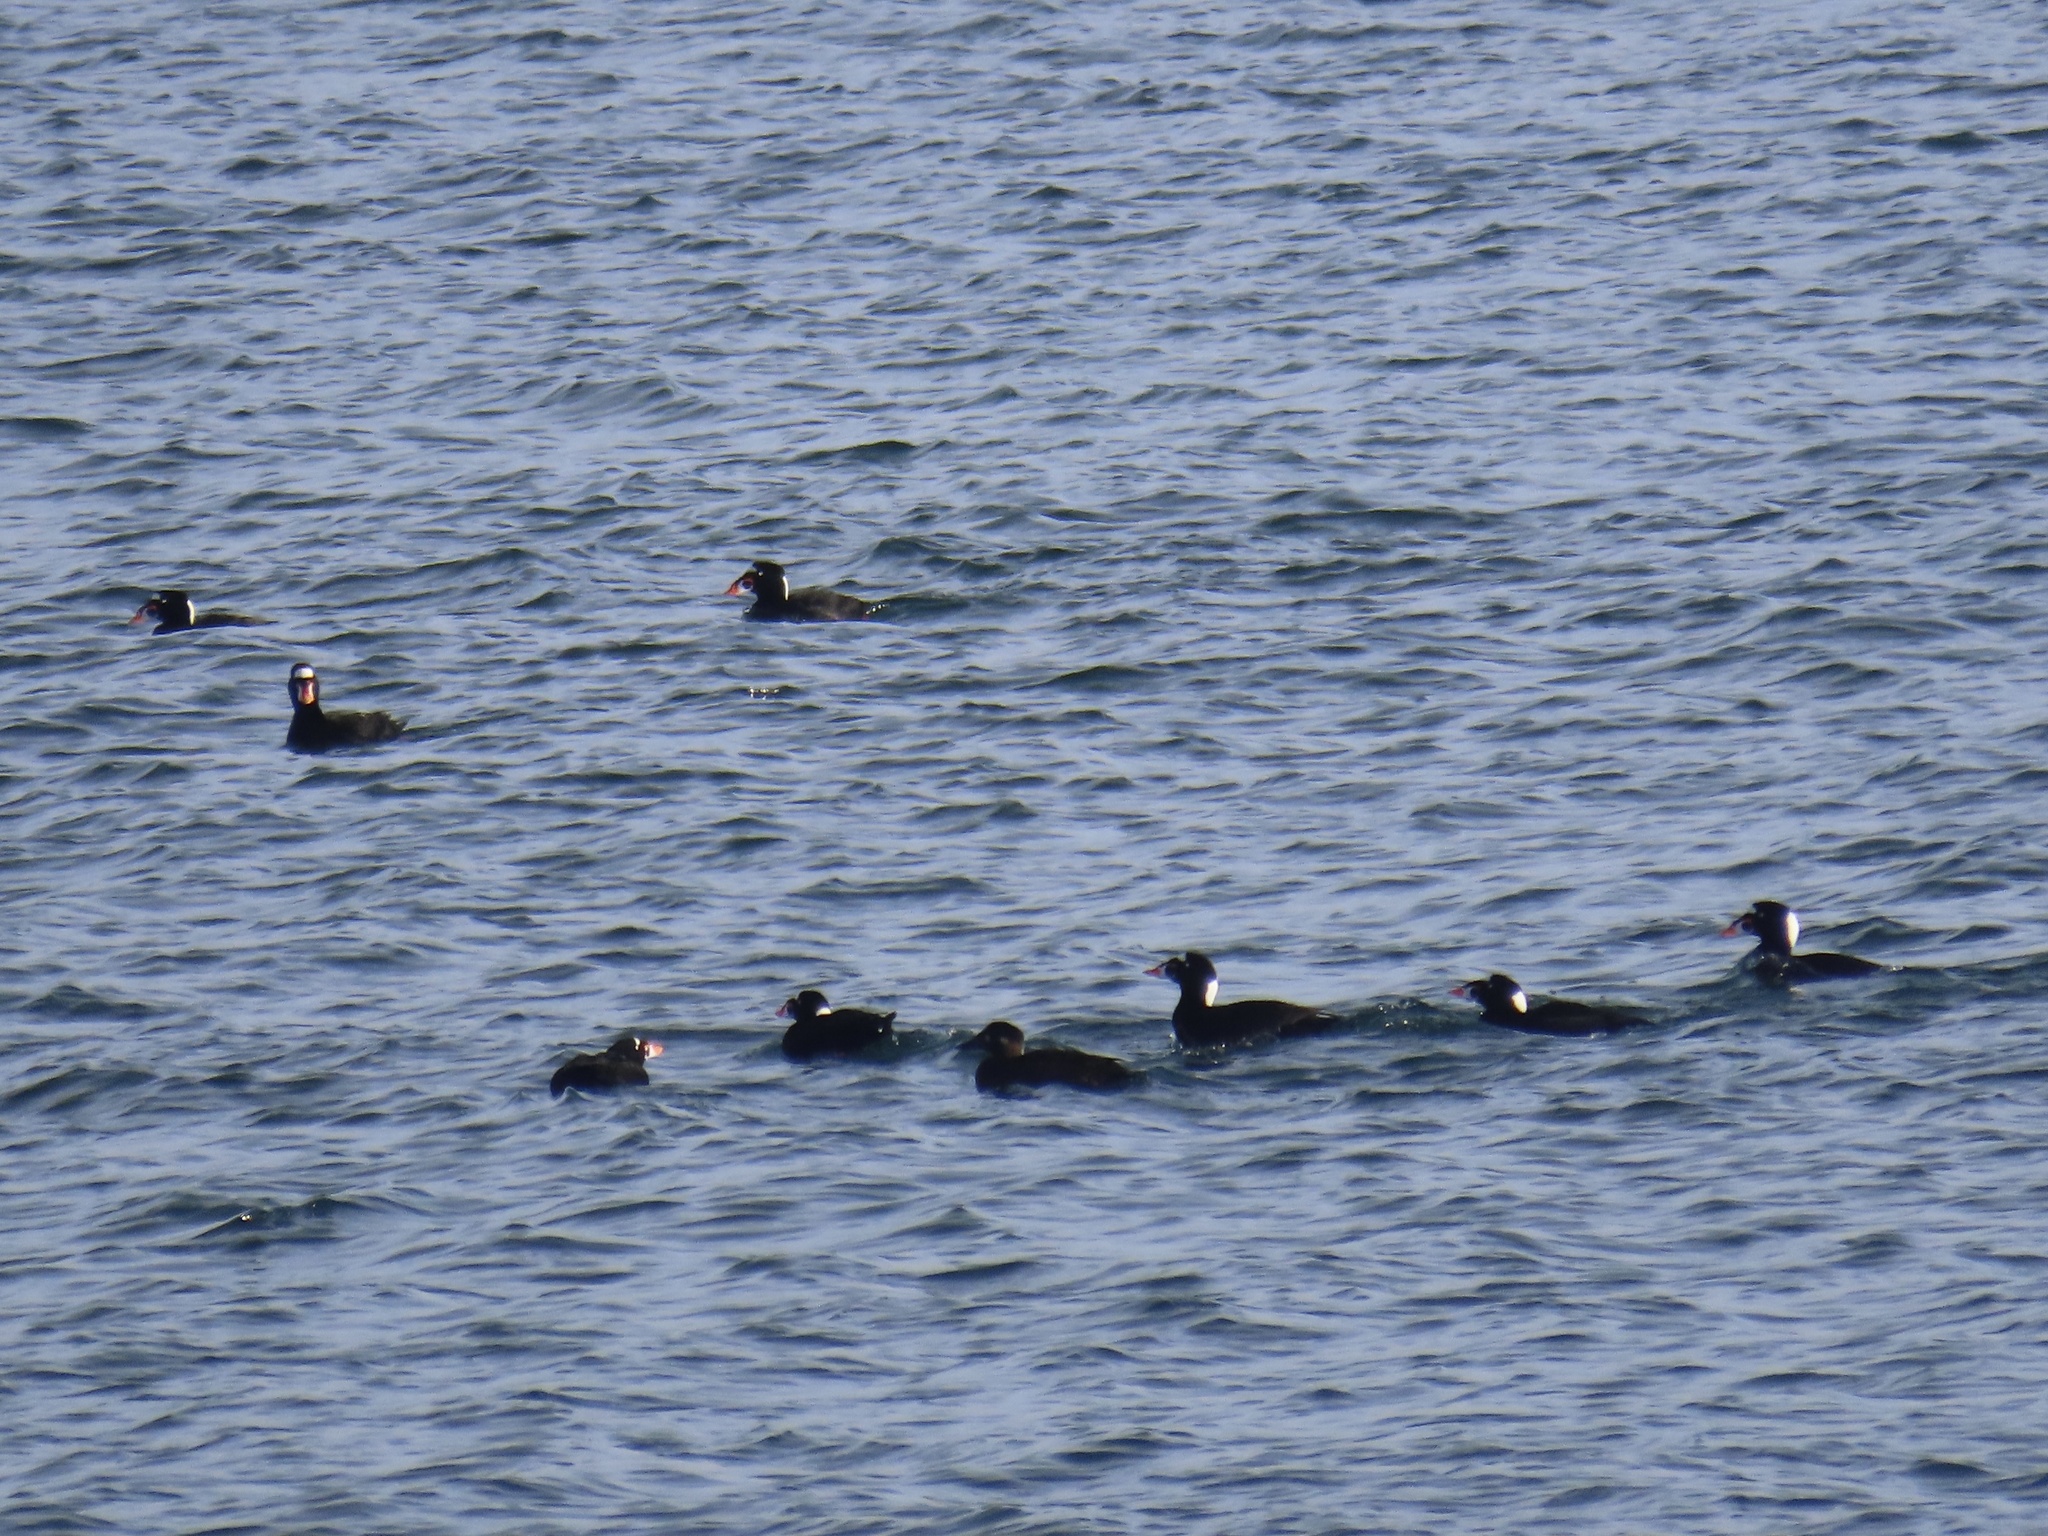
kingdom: Animalia
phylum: Chordata
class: Aves
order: Anseriformes
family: Anatidae
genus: Melanitta
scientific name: Melanitta perspicillata
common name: Surf scoter
